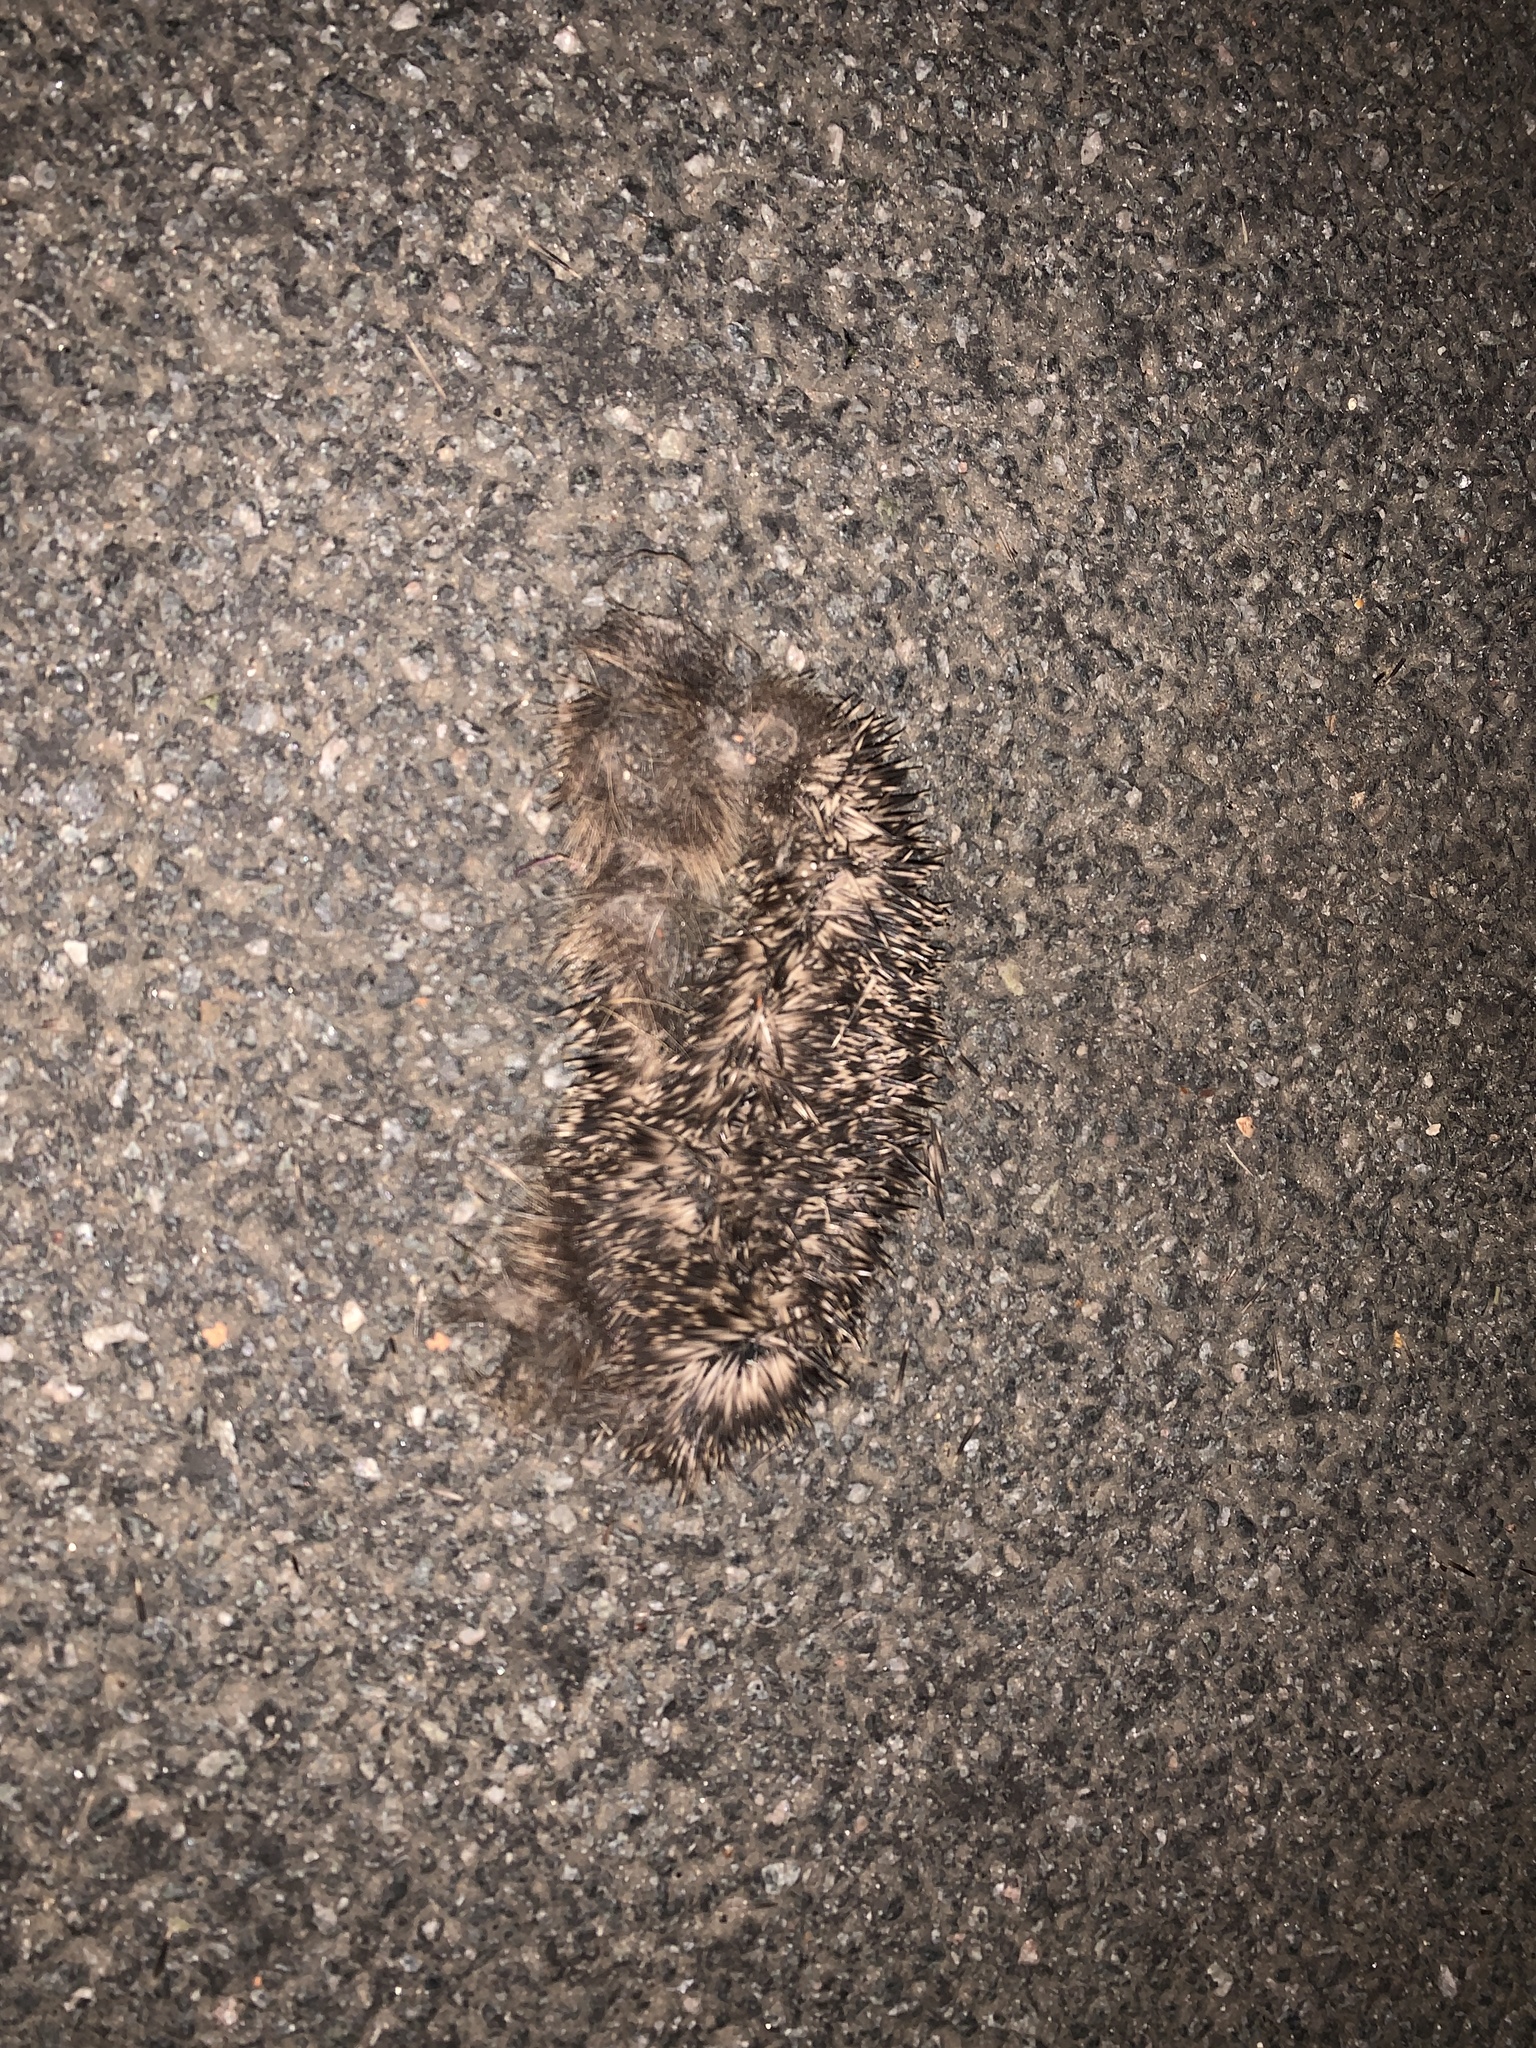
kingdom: Animalia
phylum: Chordata
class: Mammalia
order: Erinaceomorpha
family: Erinaceidae
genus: Erinaceus
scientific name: Erinaceus europaeus
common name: West european hedgehog
